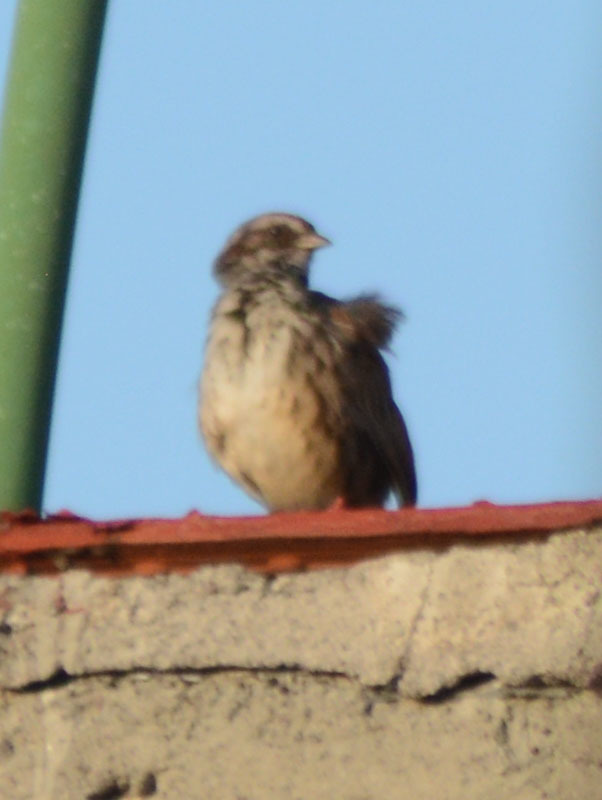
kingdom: Animalia
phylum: Chordata
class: Aves
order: Passeriformes
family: Passerellidae
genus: Melospiza
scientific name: Melospiza melodia
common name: Song sparrow
